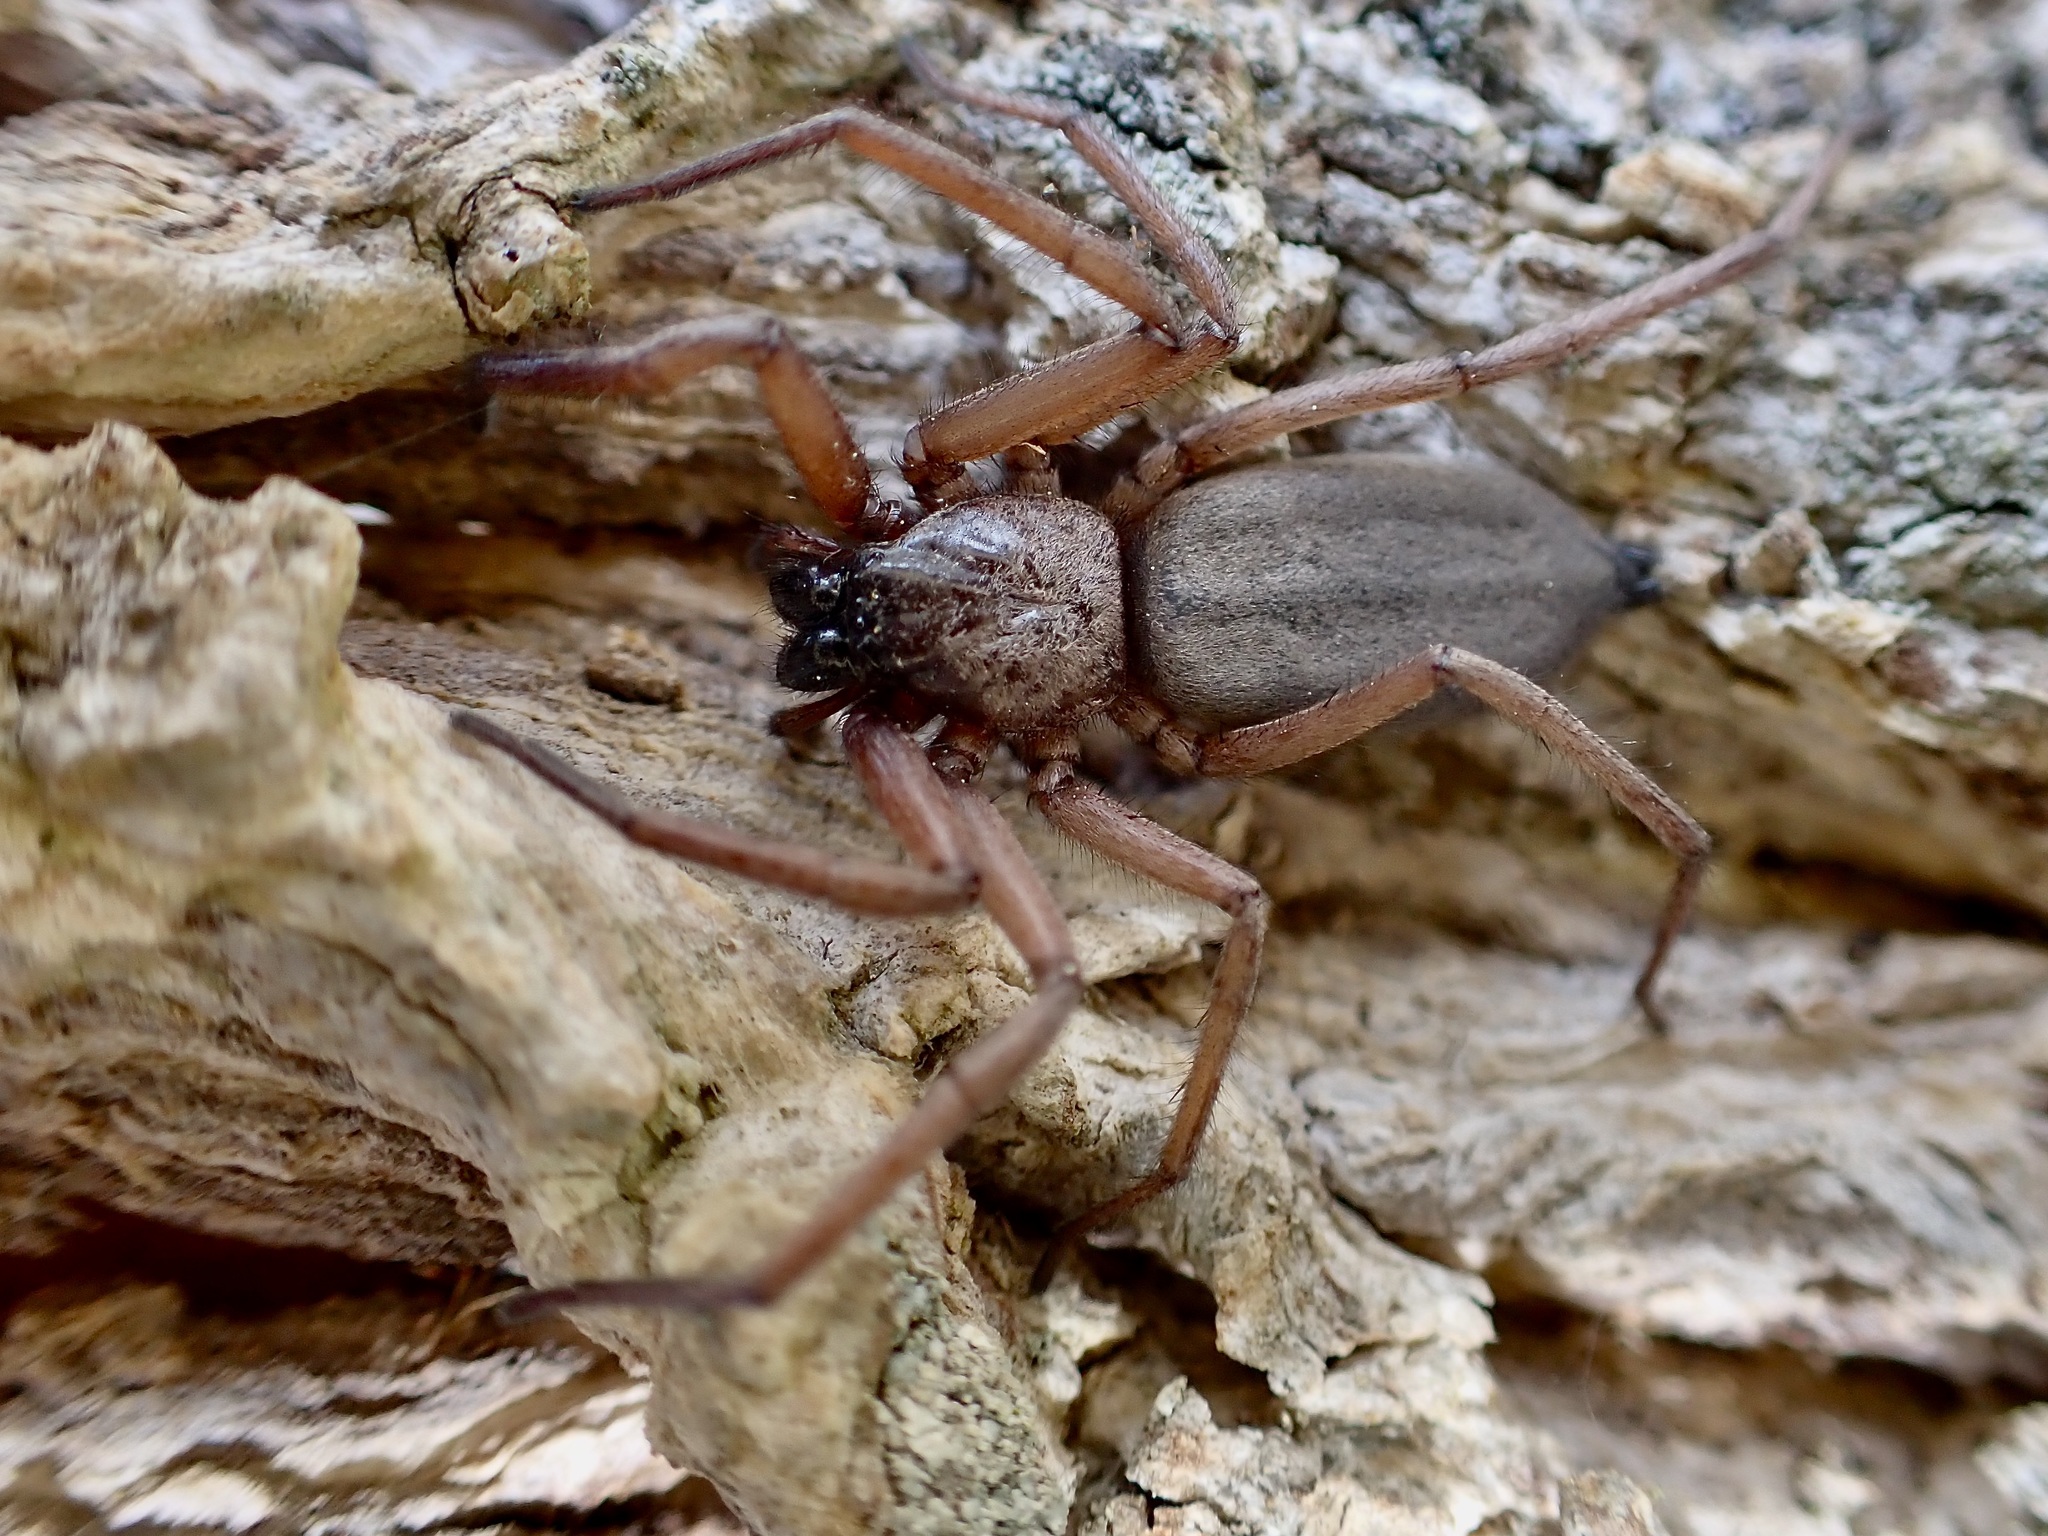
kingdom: Animalia
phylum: Arthropoda
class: Arachnida
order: Araneae
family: Trochanteriidae
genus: Hemicloea
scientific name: Hemicloea rogenhoferi
